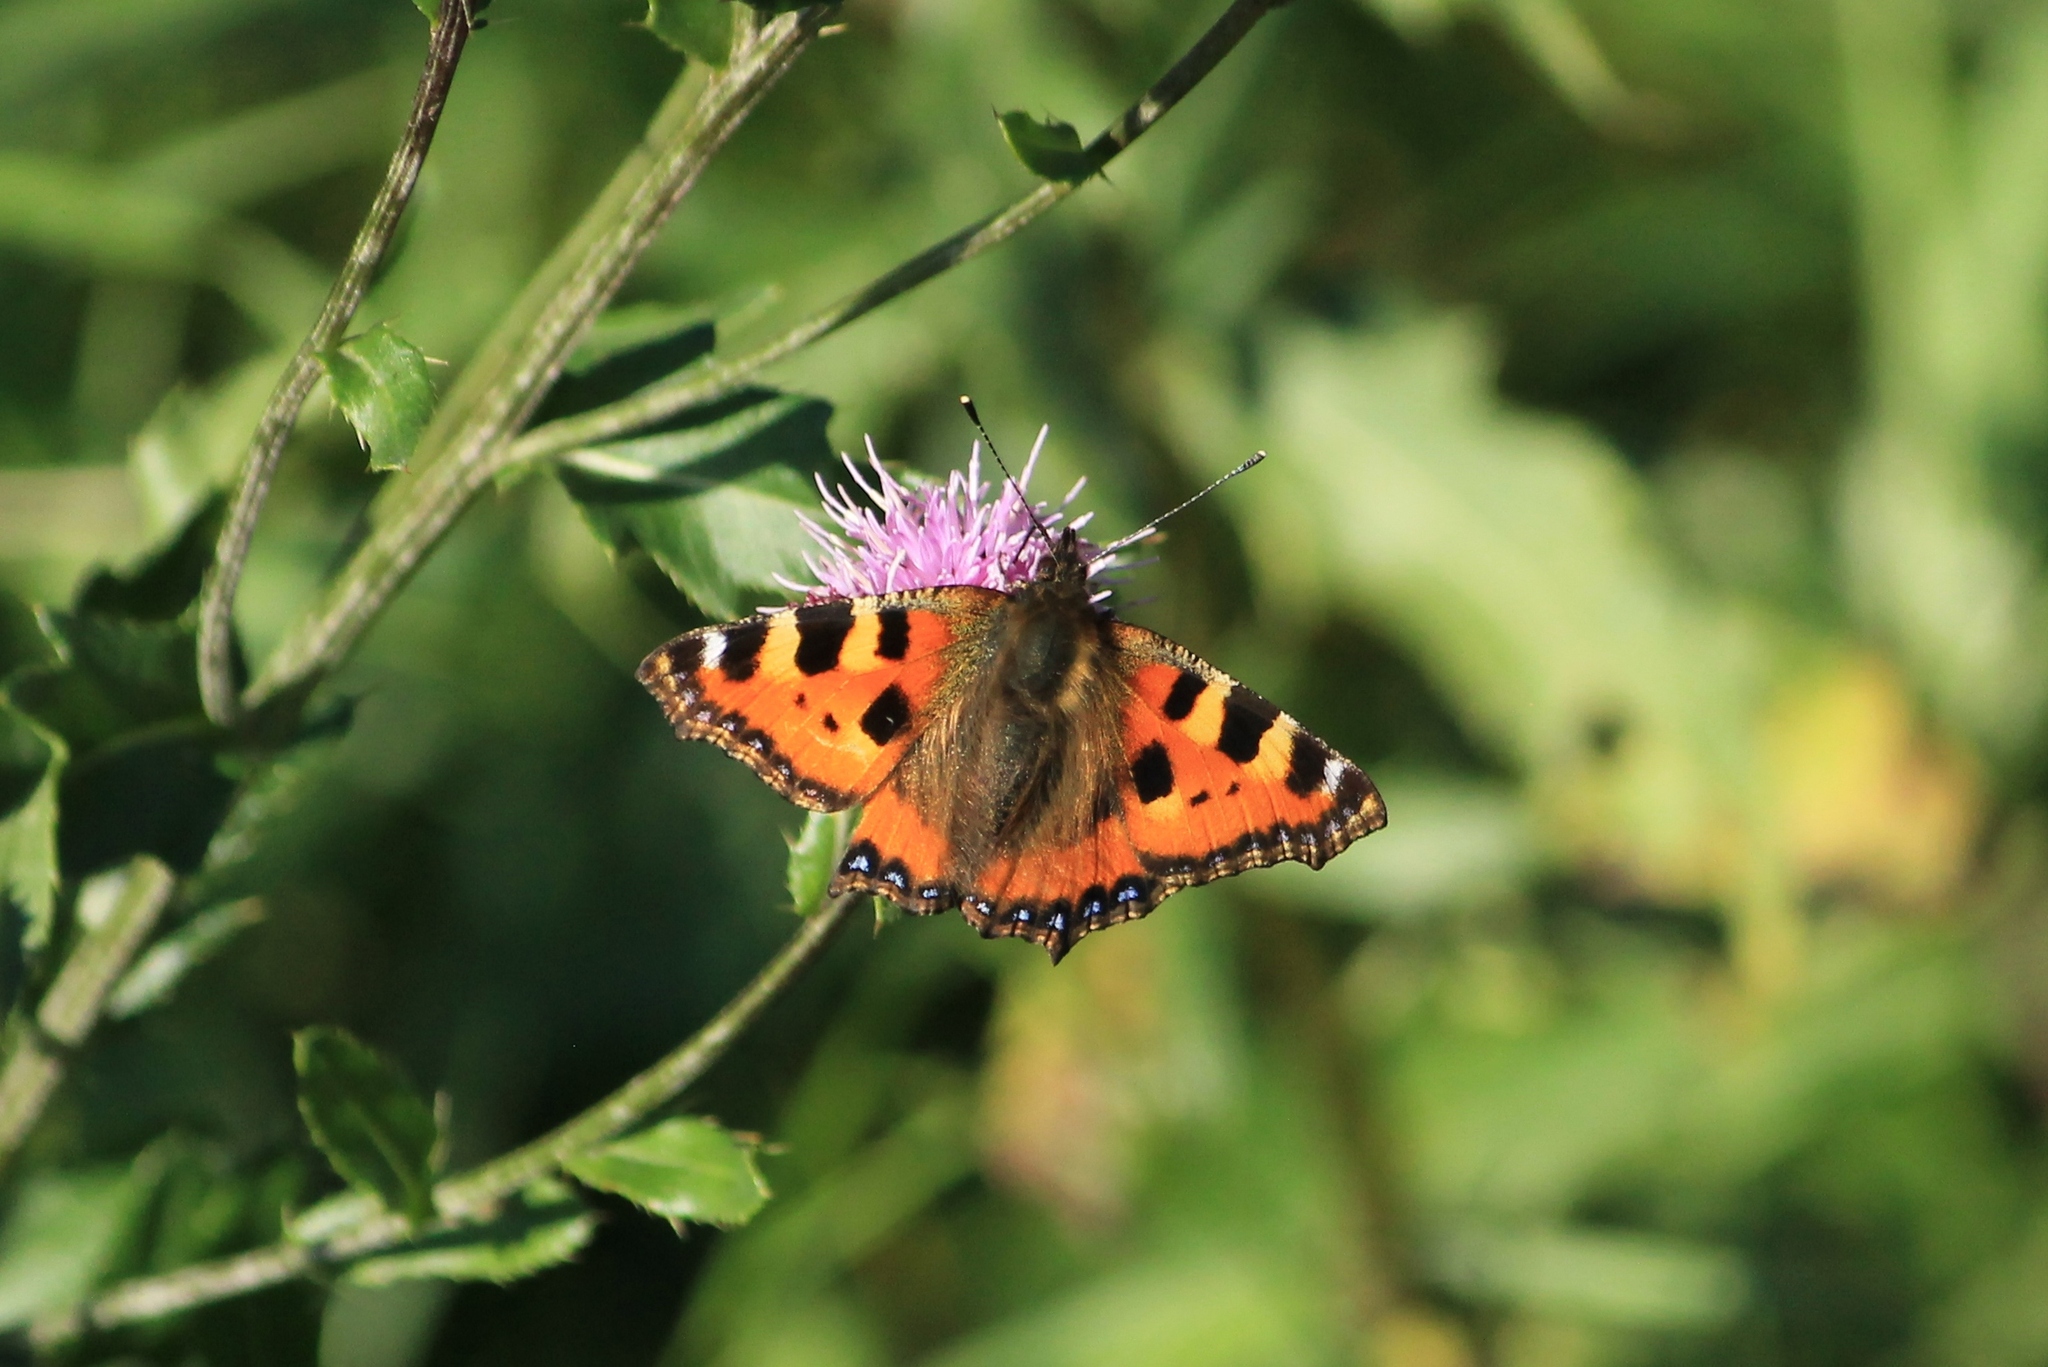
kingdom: Animalia
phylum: Arthropoda
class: Insecta
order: Lepidoptera
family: Nymphalidae
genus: Aglais
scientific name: Aglais urticae
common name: Small tortoiseshell
